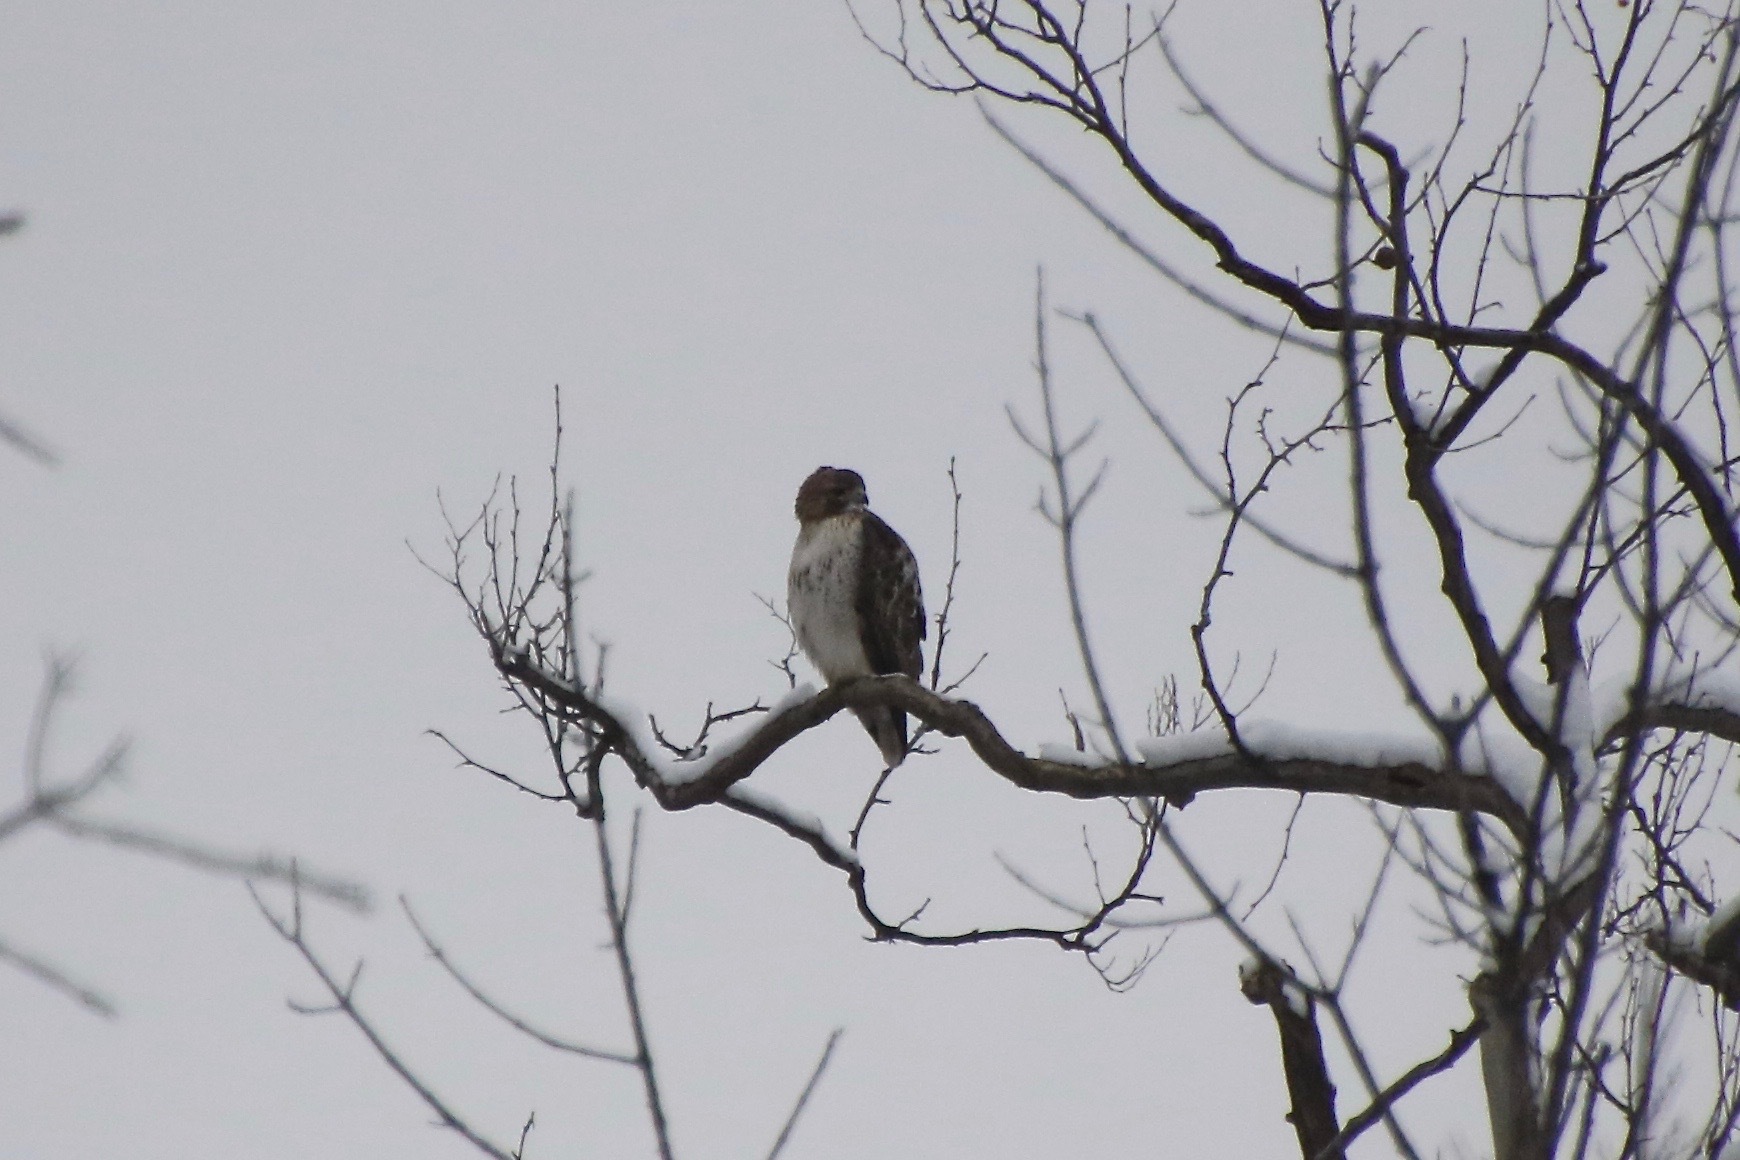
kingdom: Animalia
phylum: Chordata
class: Aves
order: Accipitriformes
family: Accipitridae
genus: Buteo
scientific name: Buteo jamaicensis
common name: Red-tailed hawk
